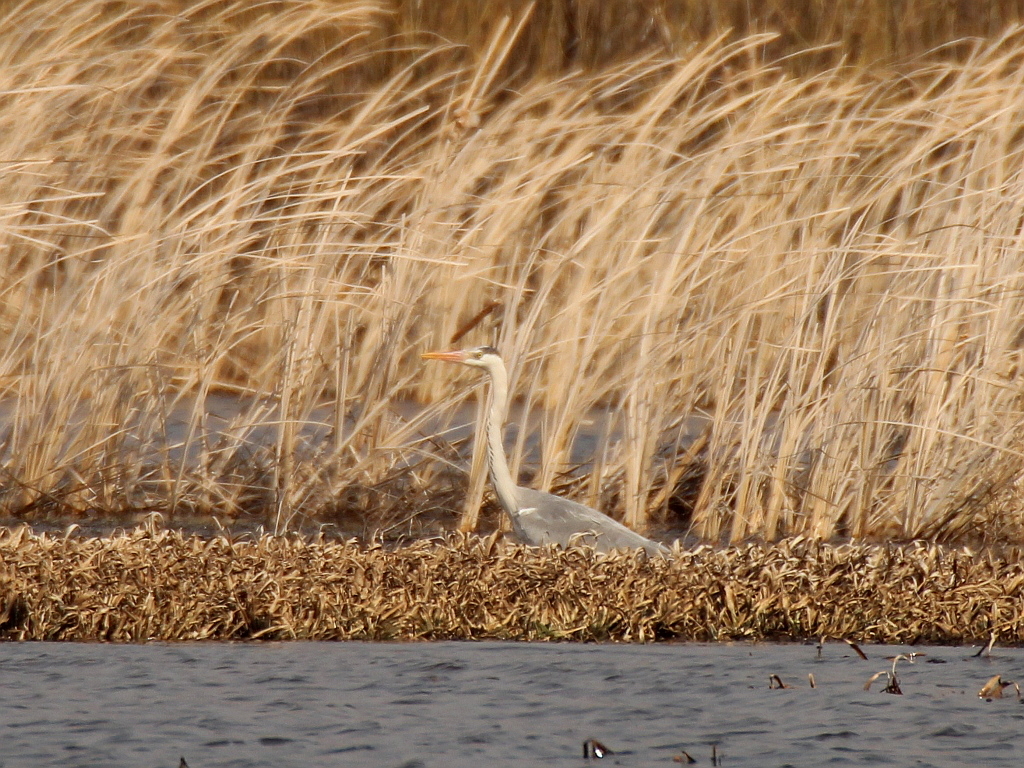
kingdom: Animalia
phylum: Chordata
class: Aves
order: Pelecaniformes
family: Ardeidae
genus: Ardea
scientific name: Ardea cinerea
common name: Grey heron
